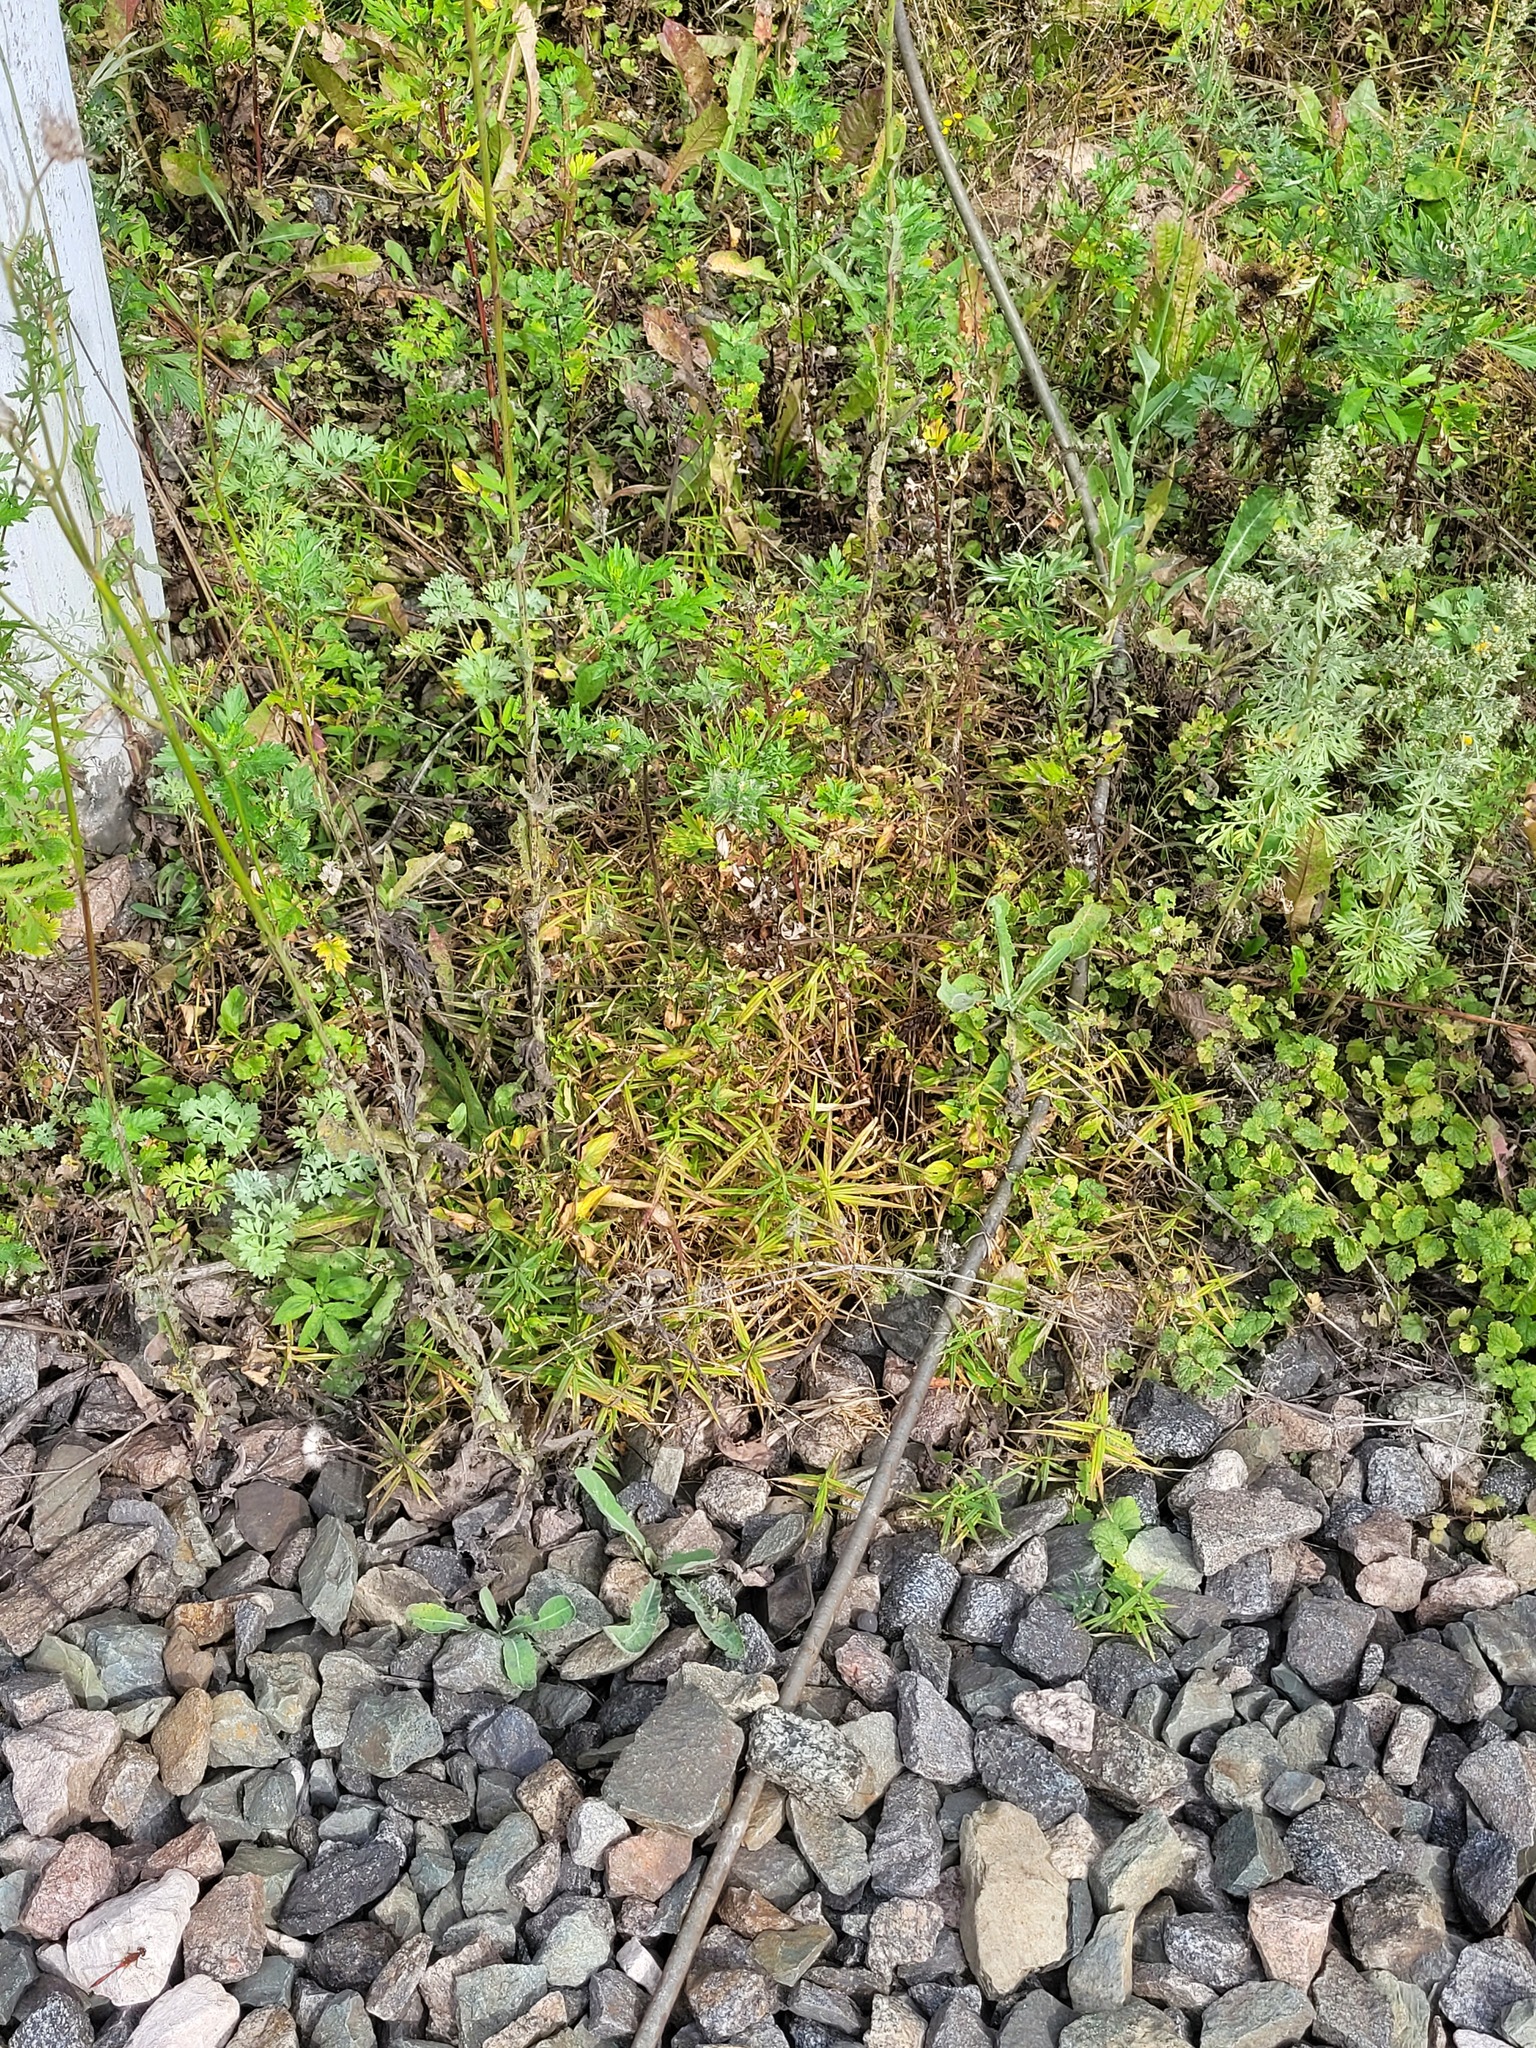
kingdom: Plantae
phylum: Tracheophyta
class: Magnoliopsida
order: Caryophyllales
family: Caryophyllaceae
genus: Rabelera
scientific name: Rabelera holostea
